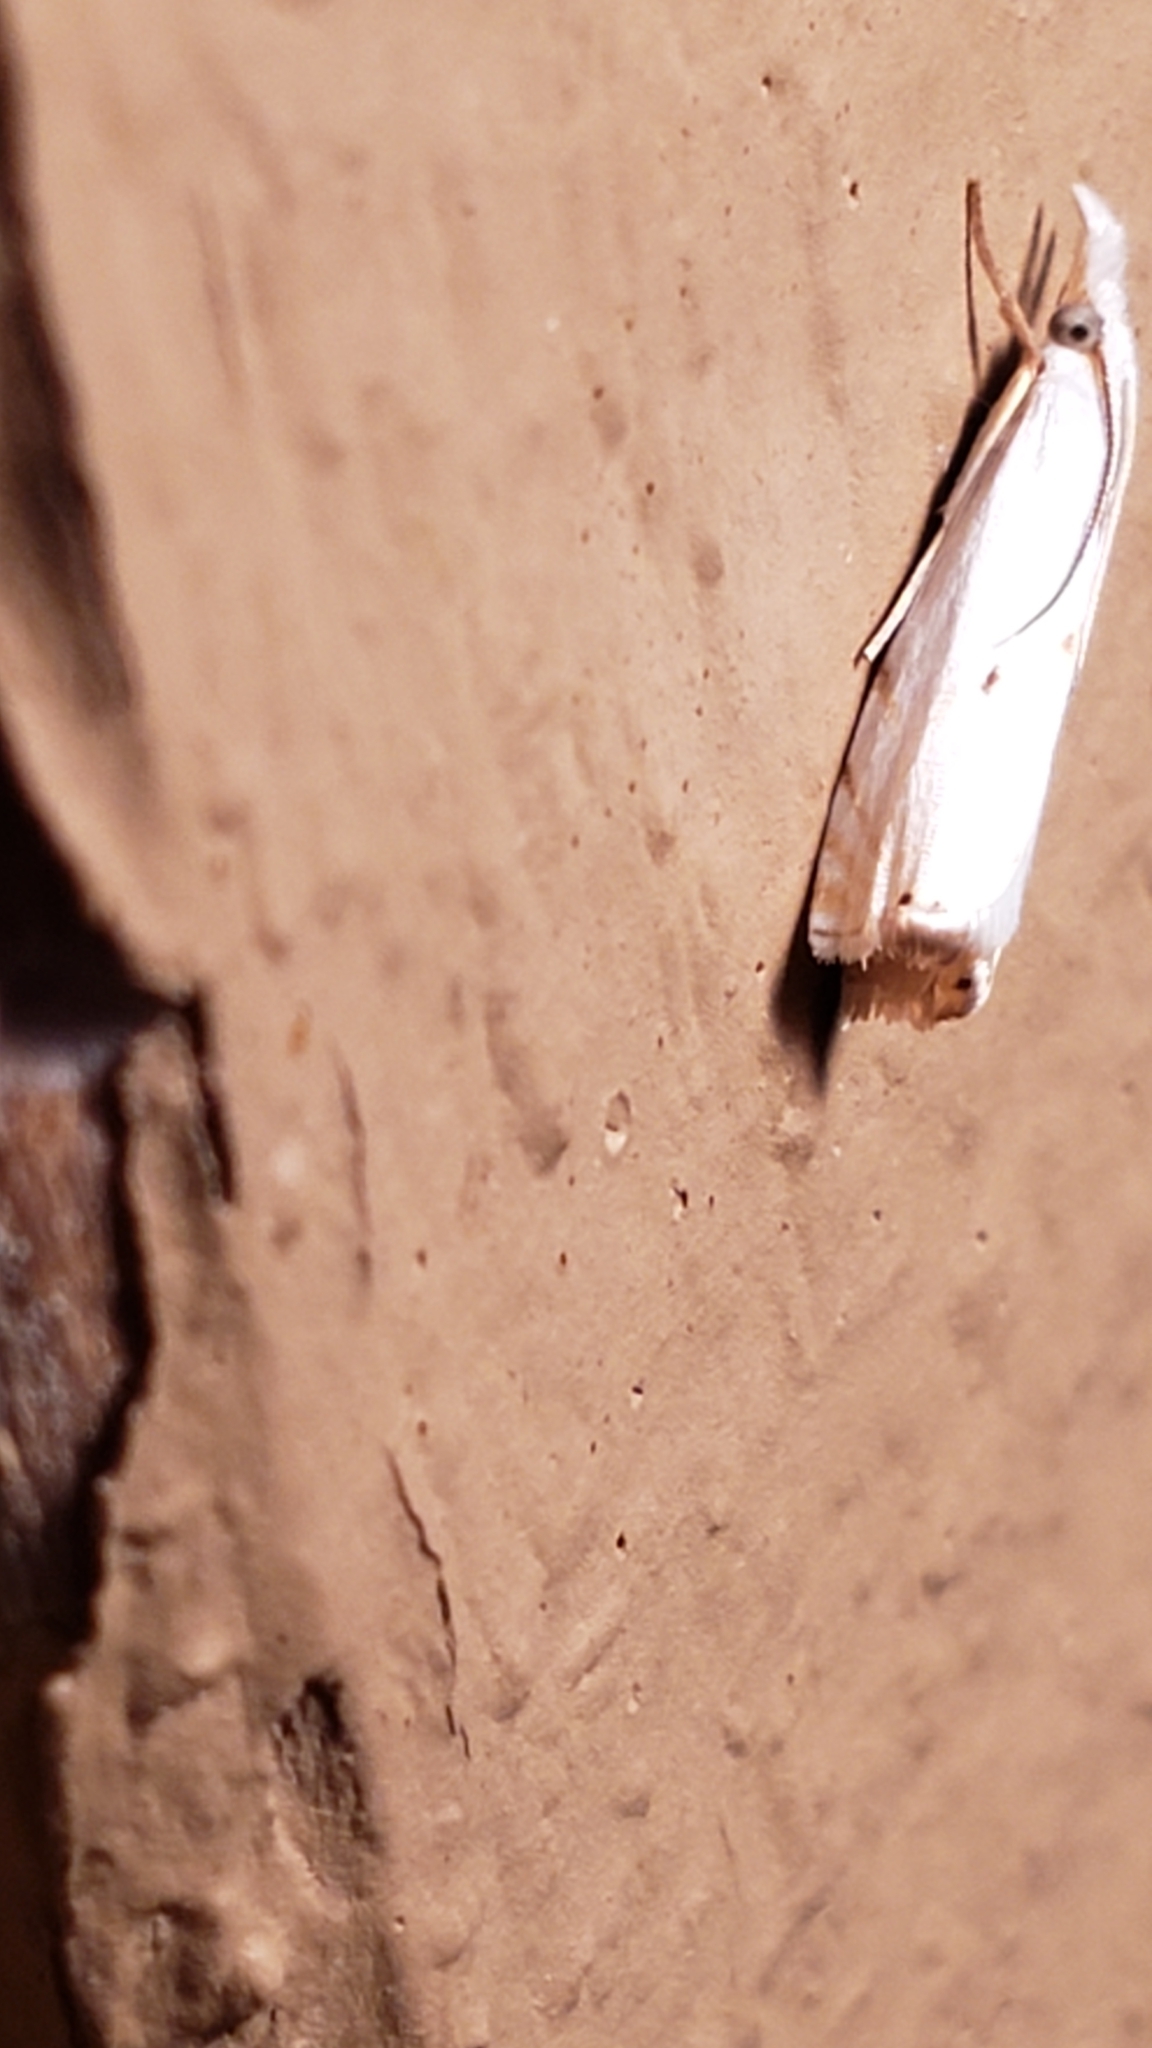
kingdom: Animalia
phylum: Arthropoda
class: Insecta
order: Lepidoptera
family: Crambidae
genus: Microcrambus
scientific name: Microcrambus biguttellus
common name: Gold-stripe grass-veneer moth
